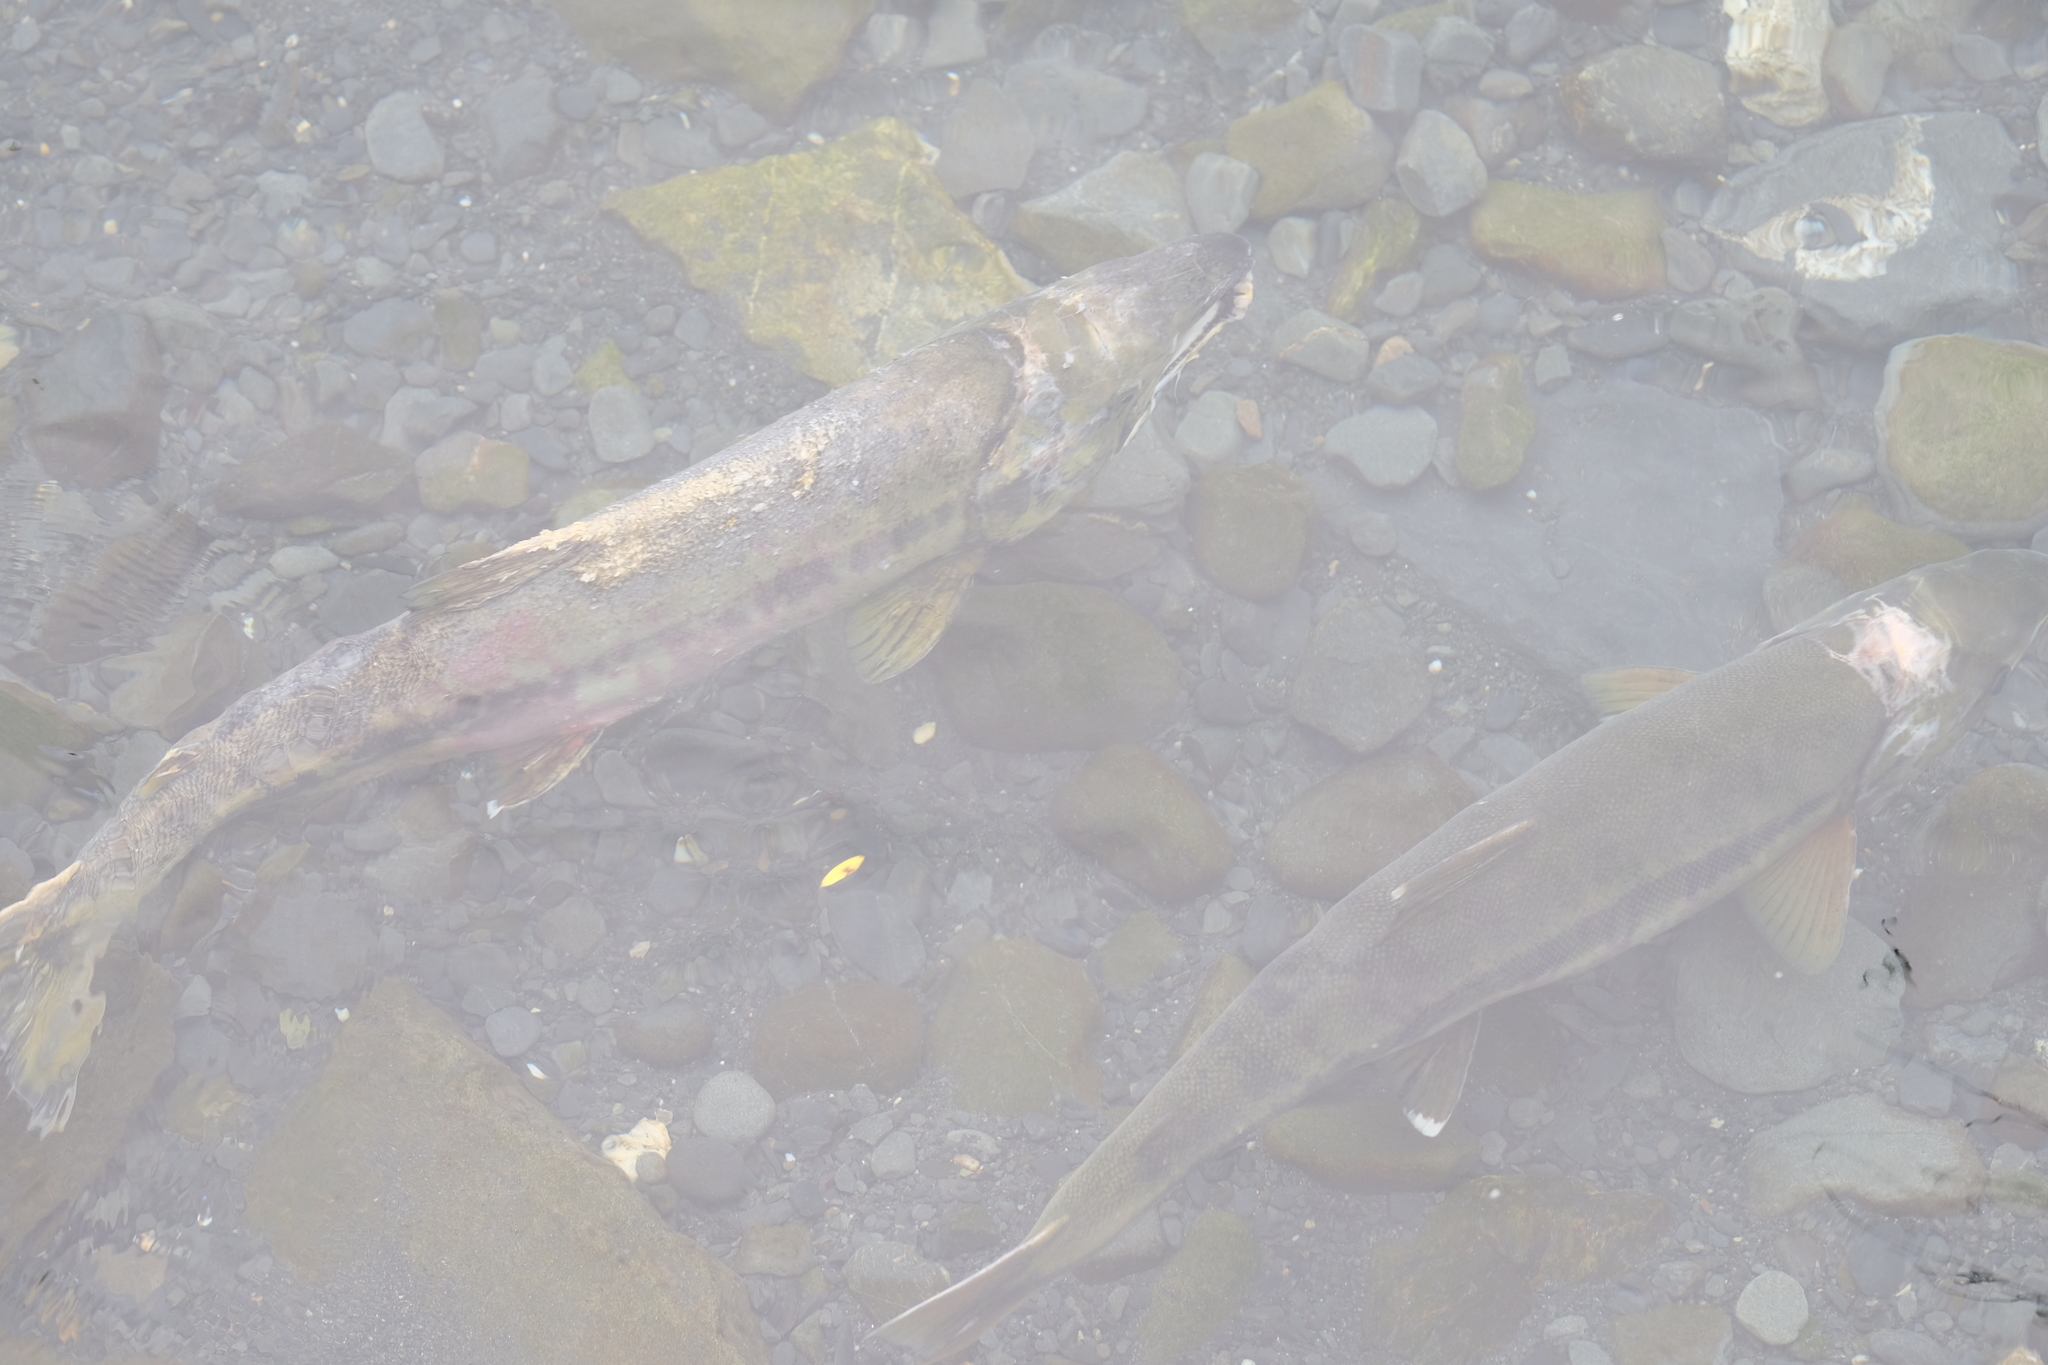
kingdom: Animalia
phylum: Chordata
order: Salmoniformes
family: Salmonidae
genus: Oncorhynchus
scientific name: Oncorhynchus keta
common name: Chum salmon
